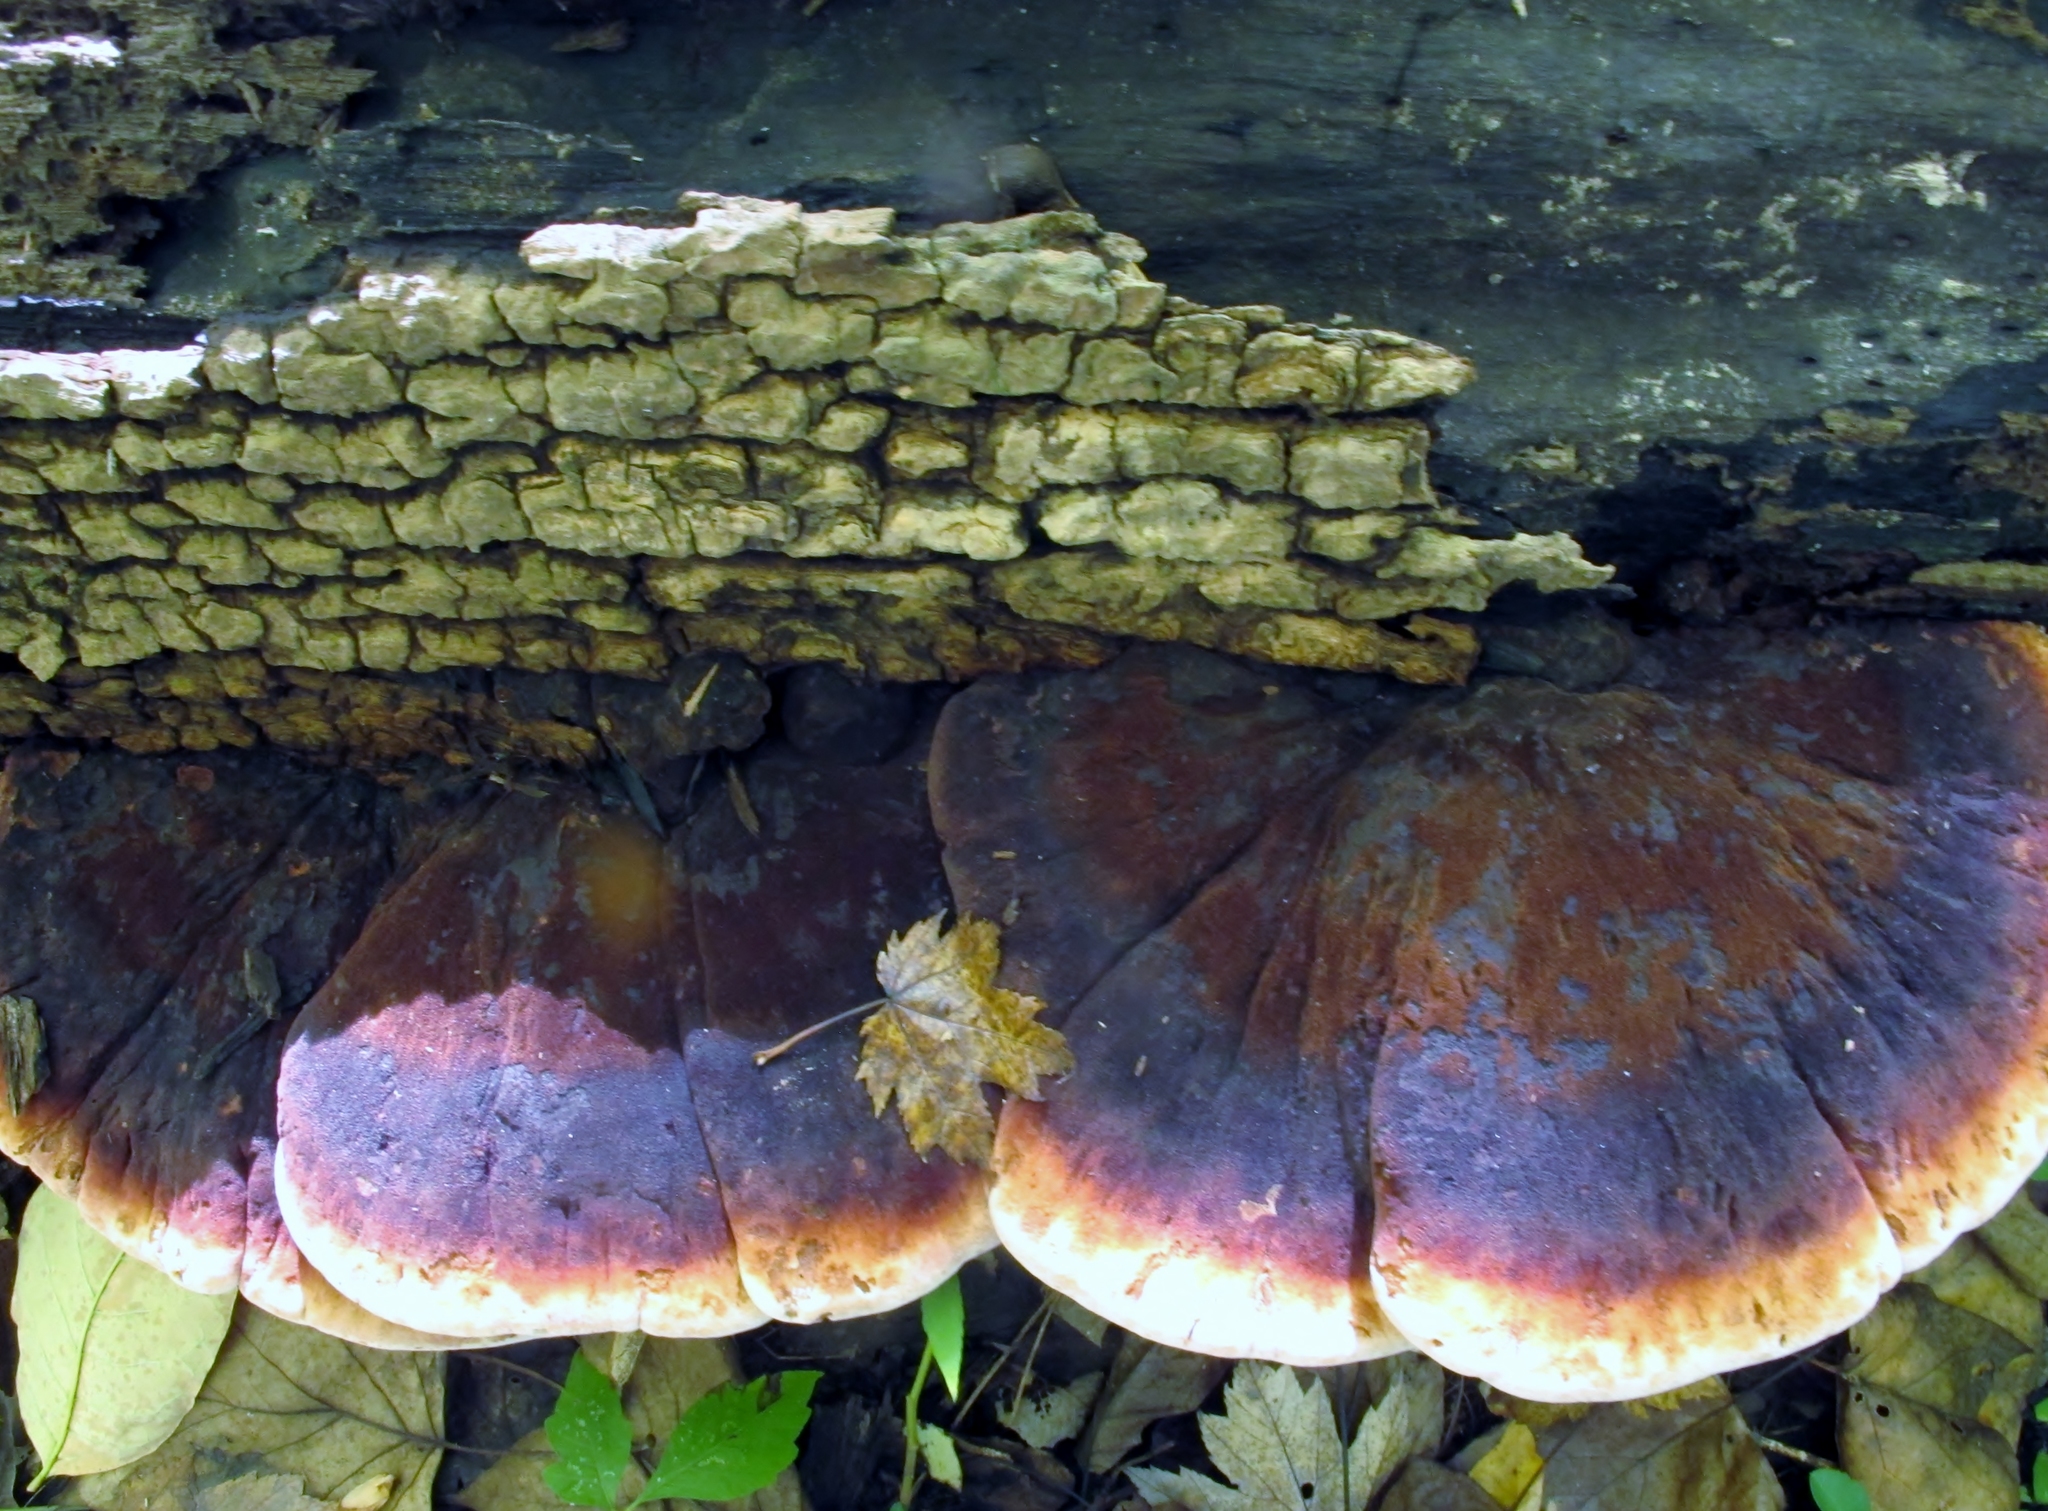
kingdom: Fungi
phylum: Basidiomycota
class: Agaricomycetes
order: Polyporales
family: Ischnodermataceae
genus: Ischnoderma
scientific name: Ischnoderma resinosum
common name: Resinous polypore
